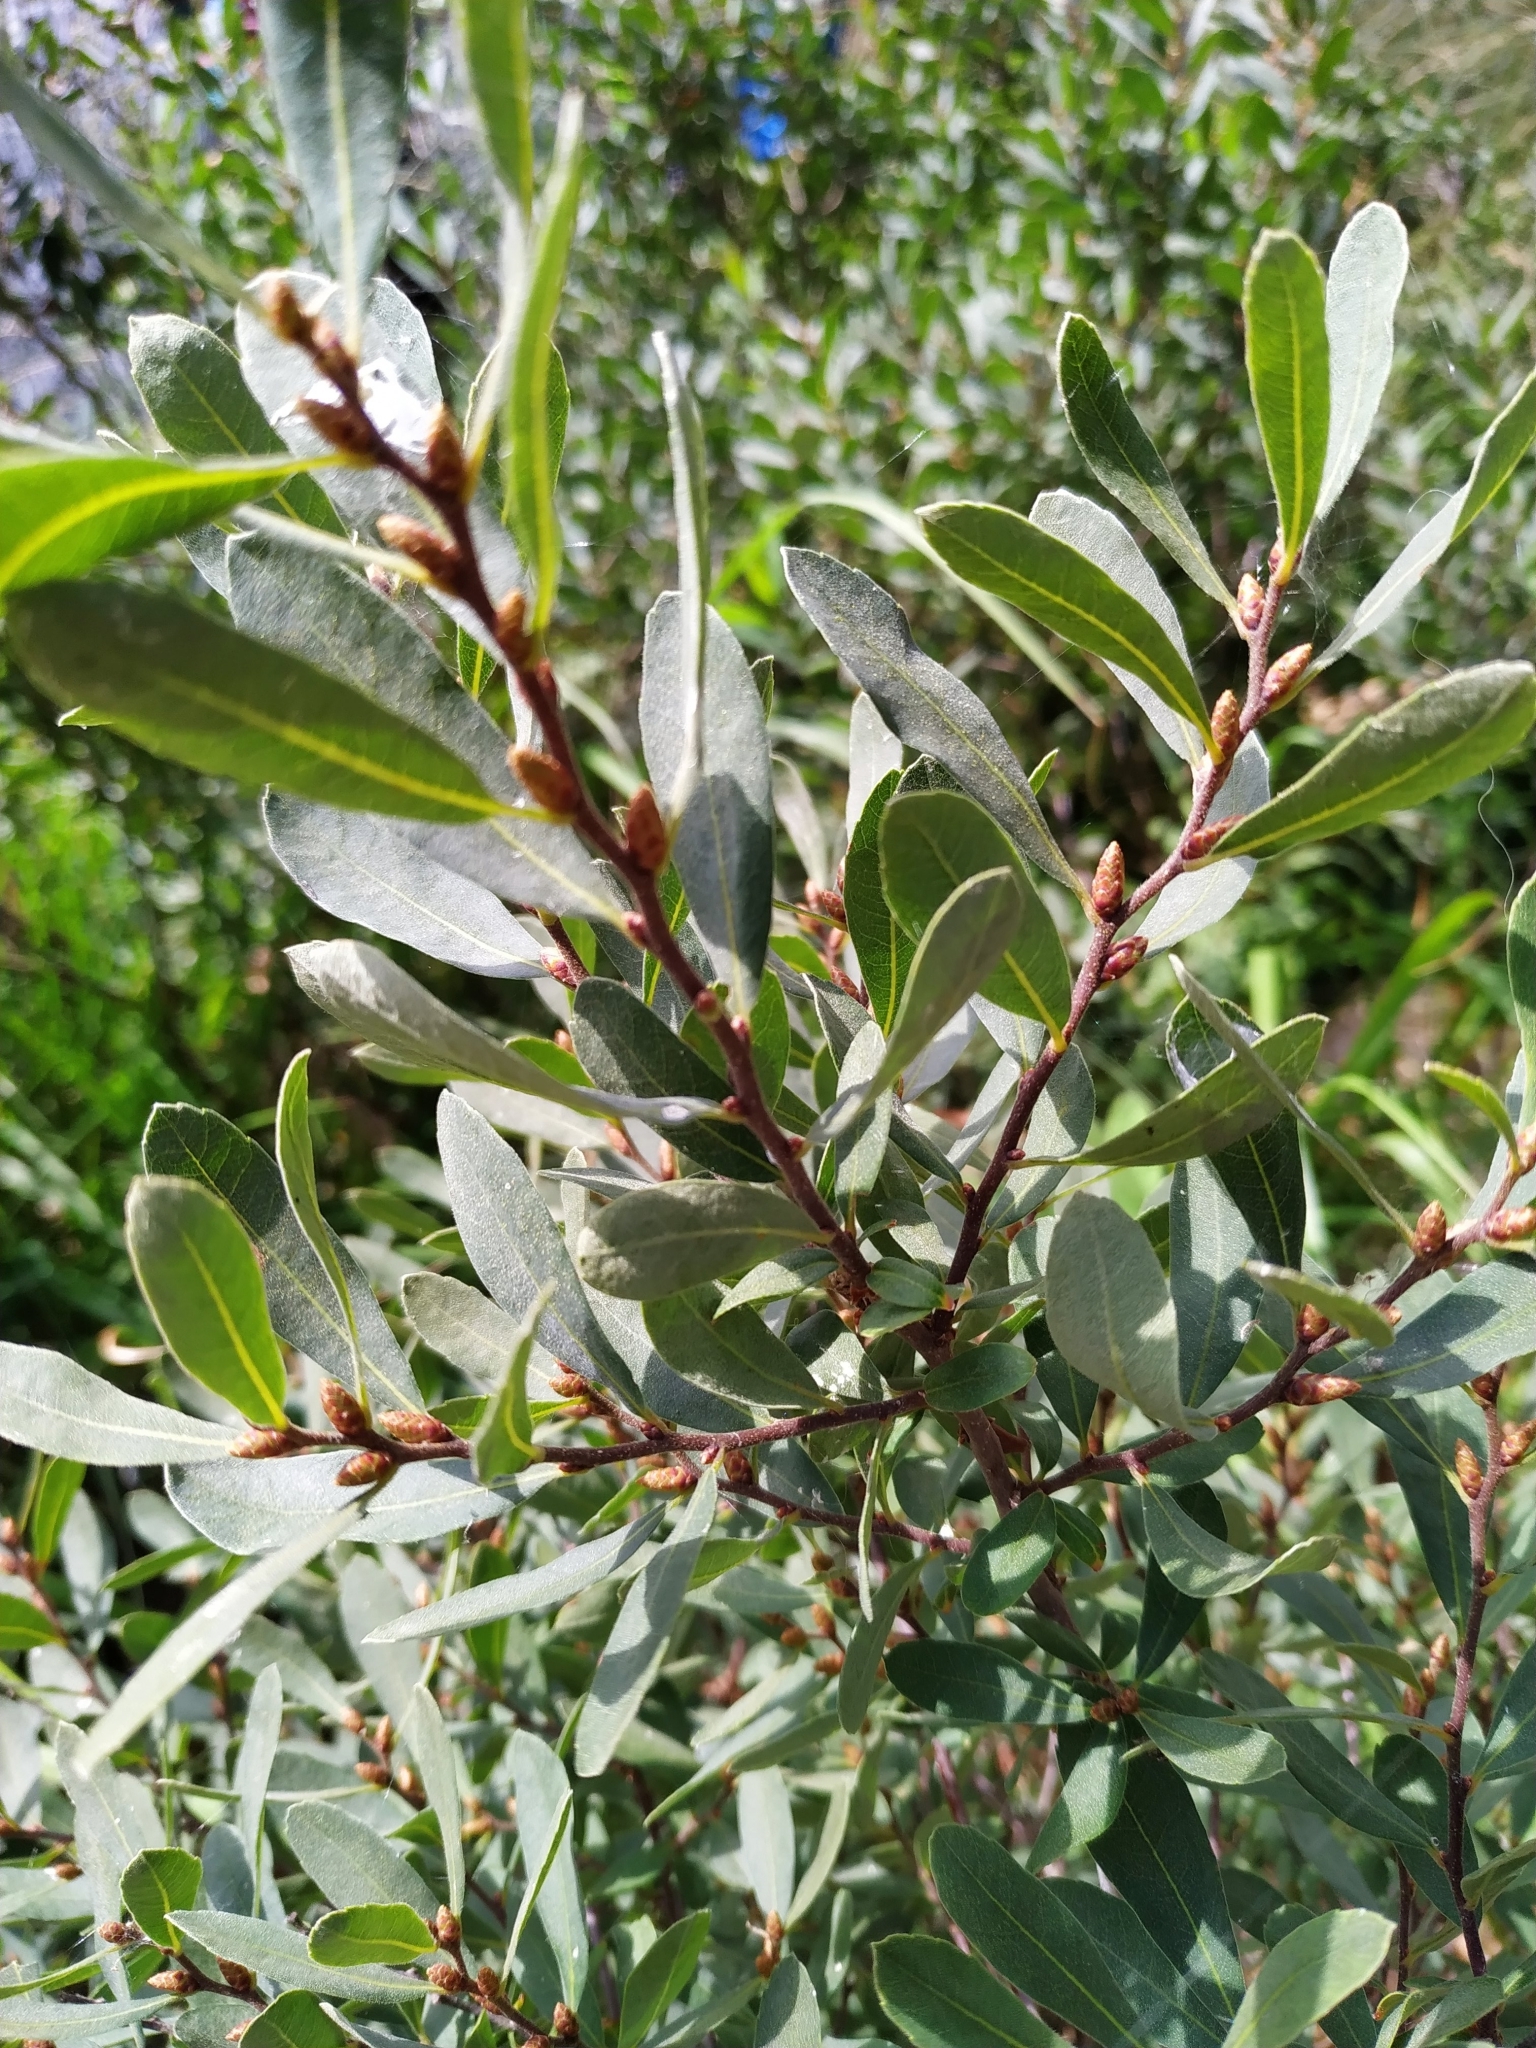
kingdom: Plantae
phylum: Tracheophyta
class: Magnoliopsida
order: Fagales
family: Myricaceae
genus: Myrica
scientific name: Myrica gale
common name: Sweet gale
